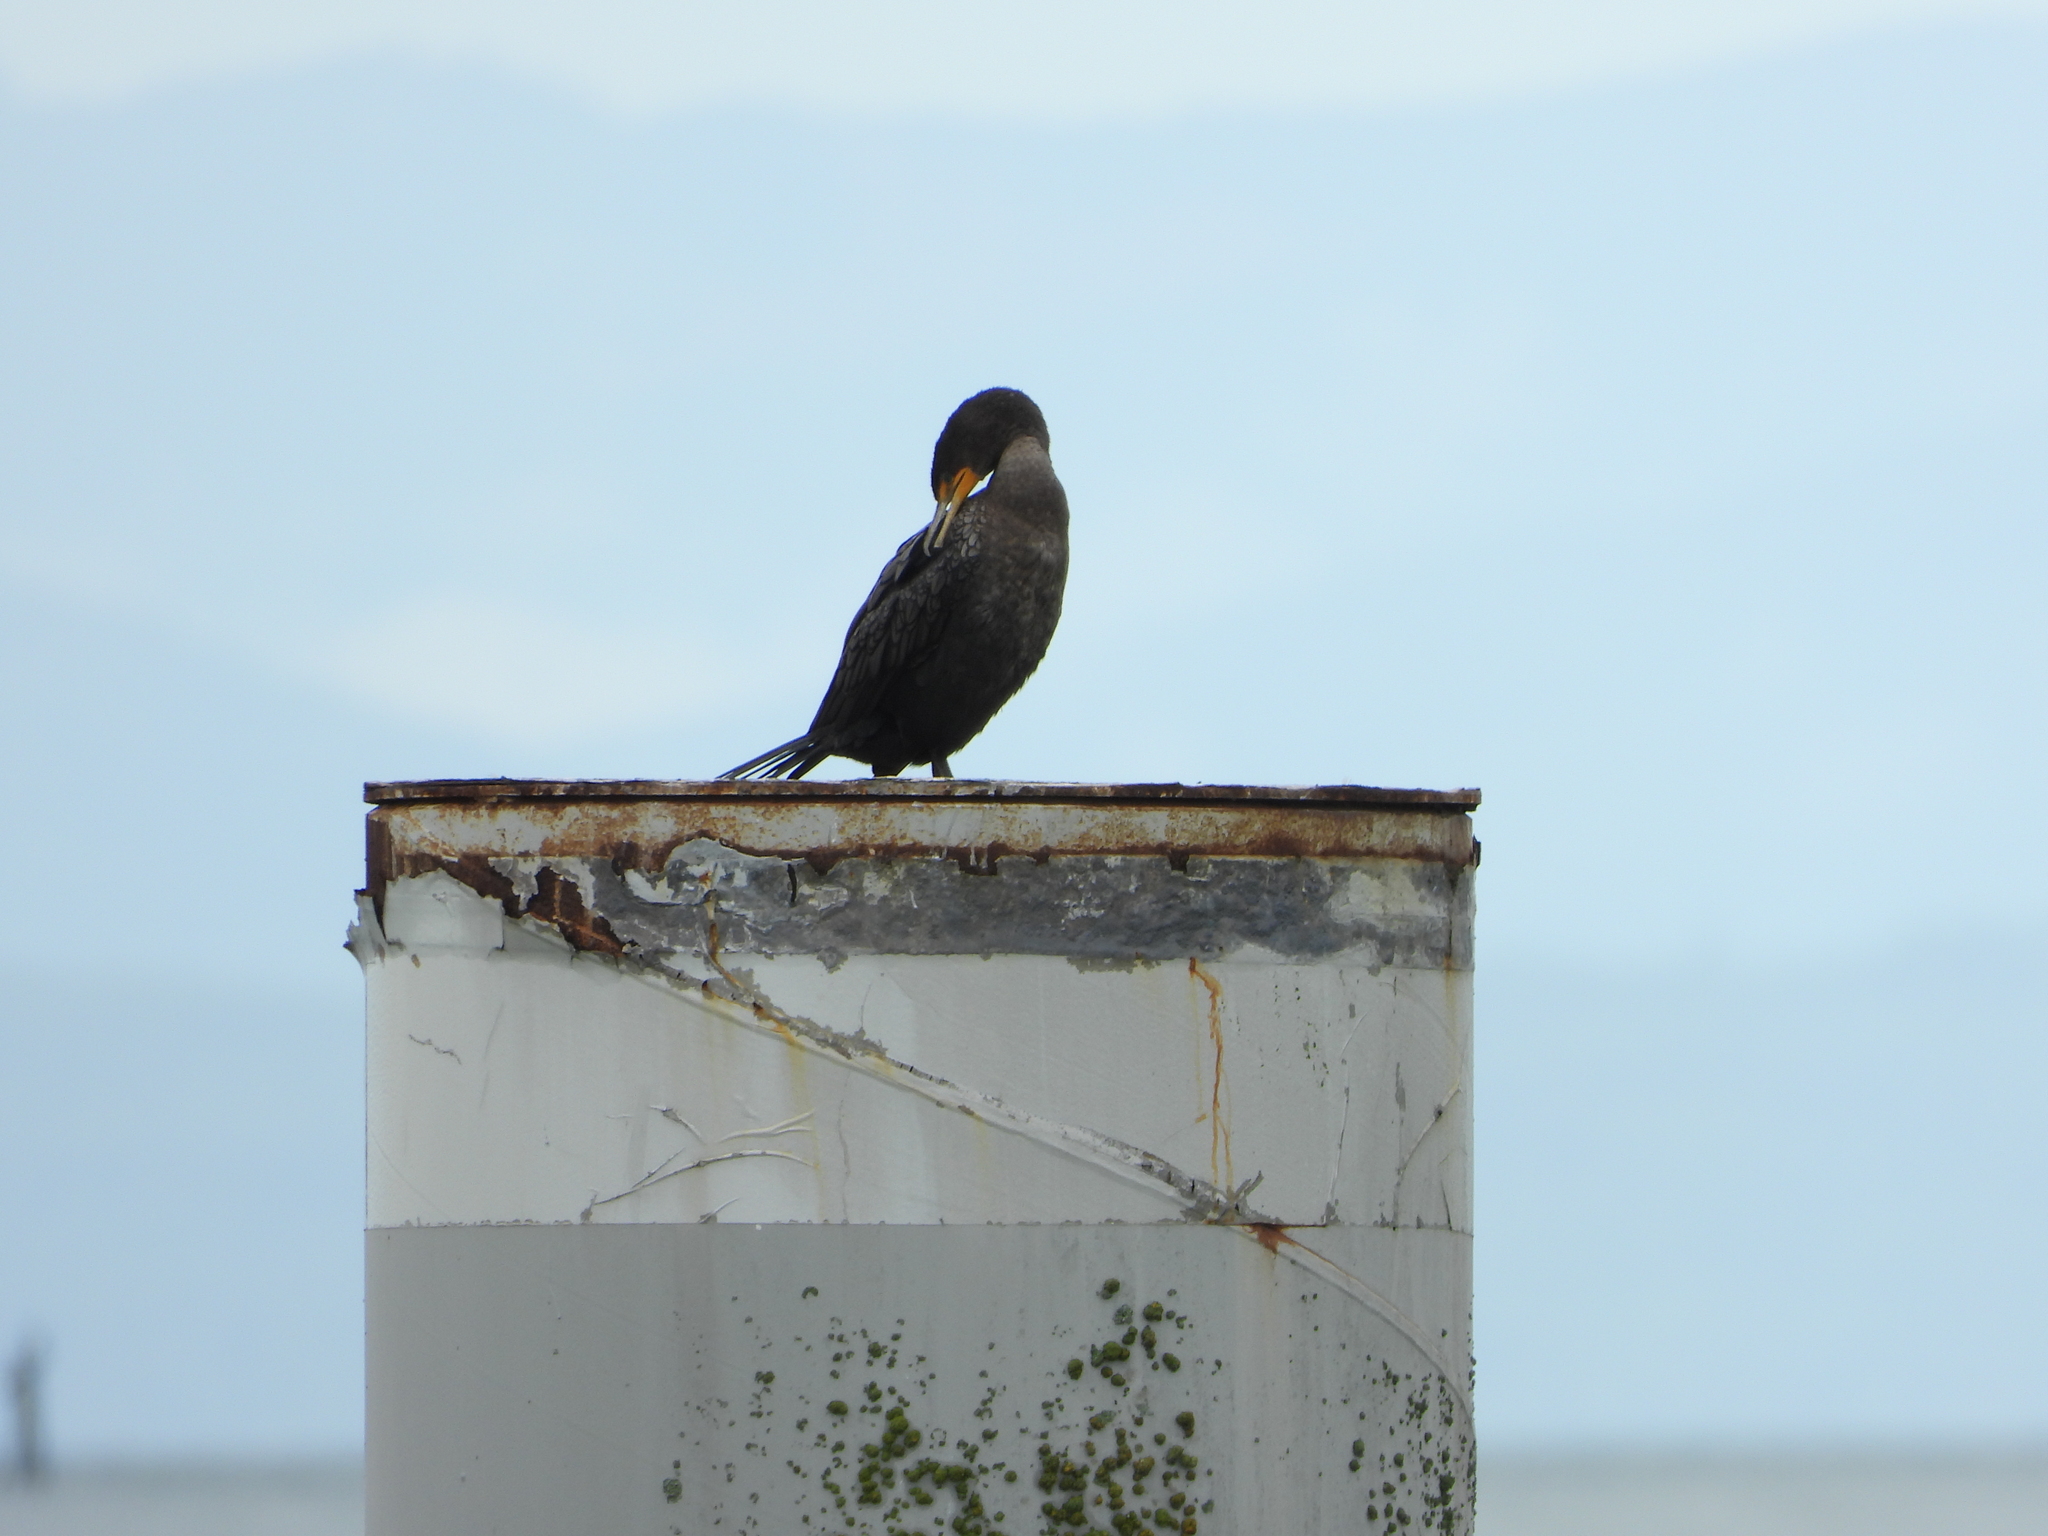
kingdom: Animalia
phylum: Chordata
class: Aves
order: Suliformes
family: Phalacrocoracidae
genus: Phalacrocorax
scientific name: Phalacrocorax auritus
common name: Double-crested cormorant
